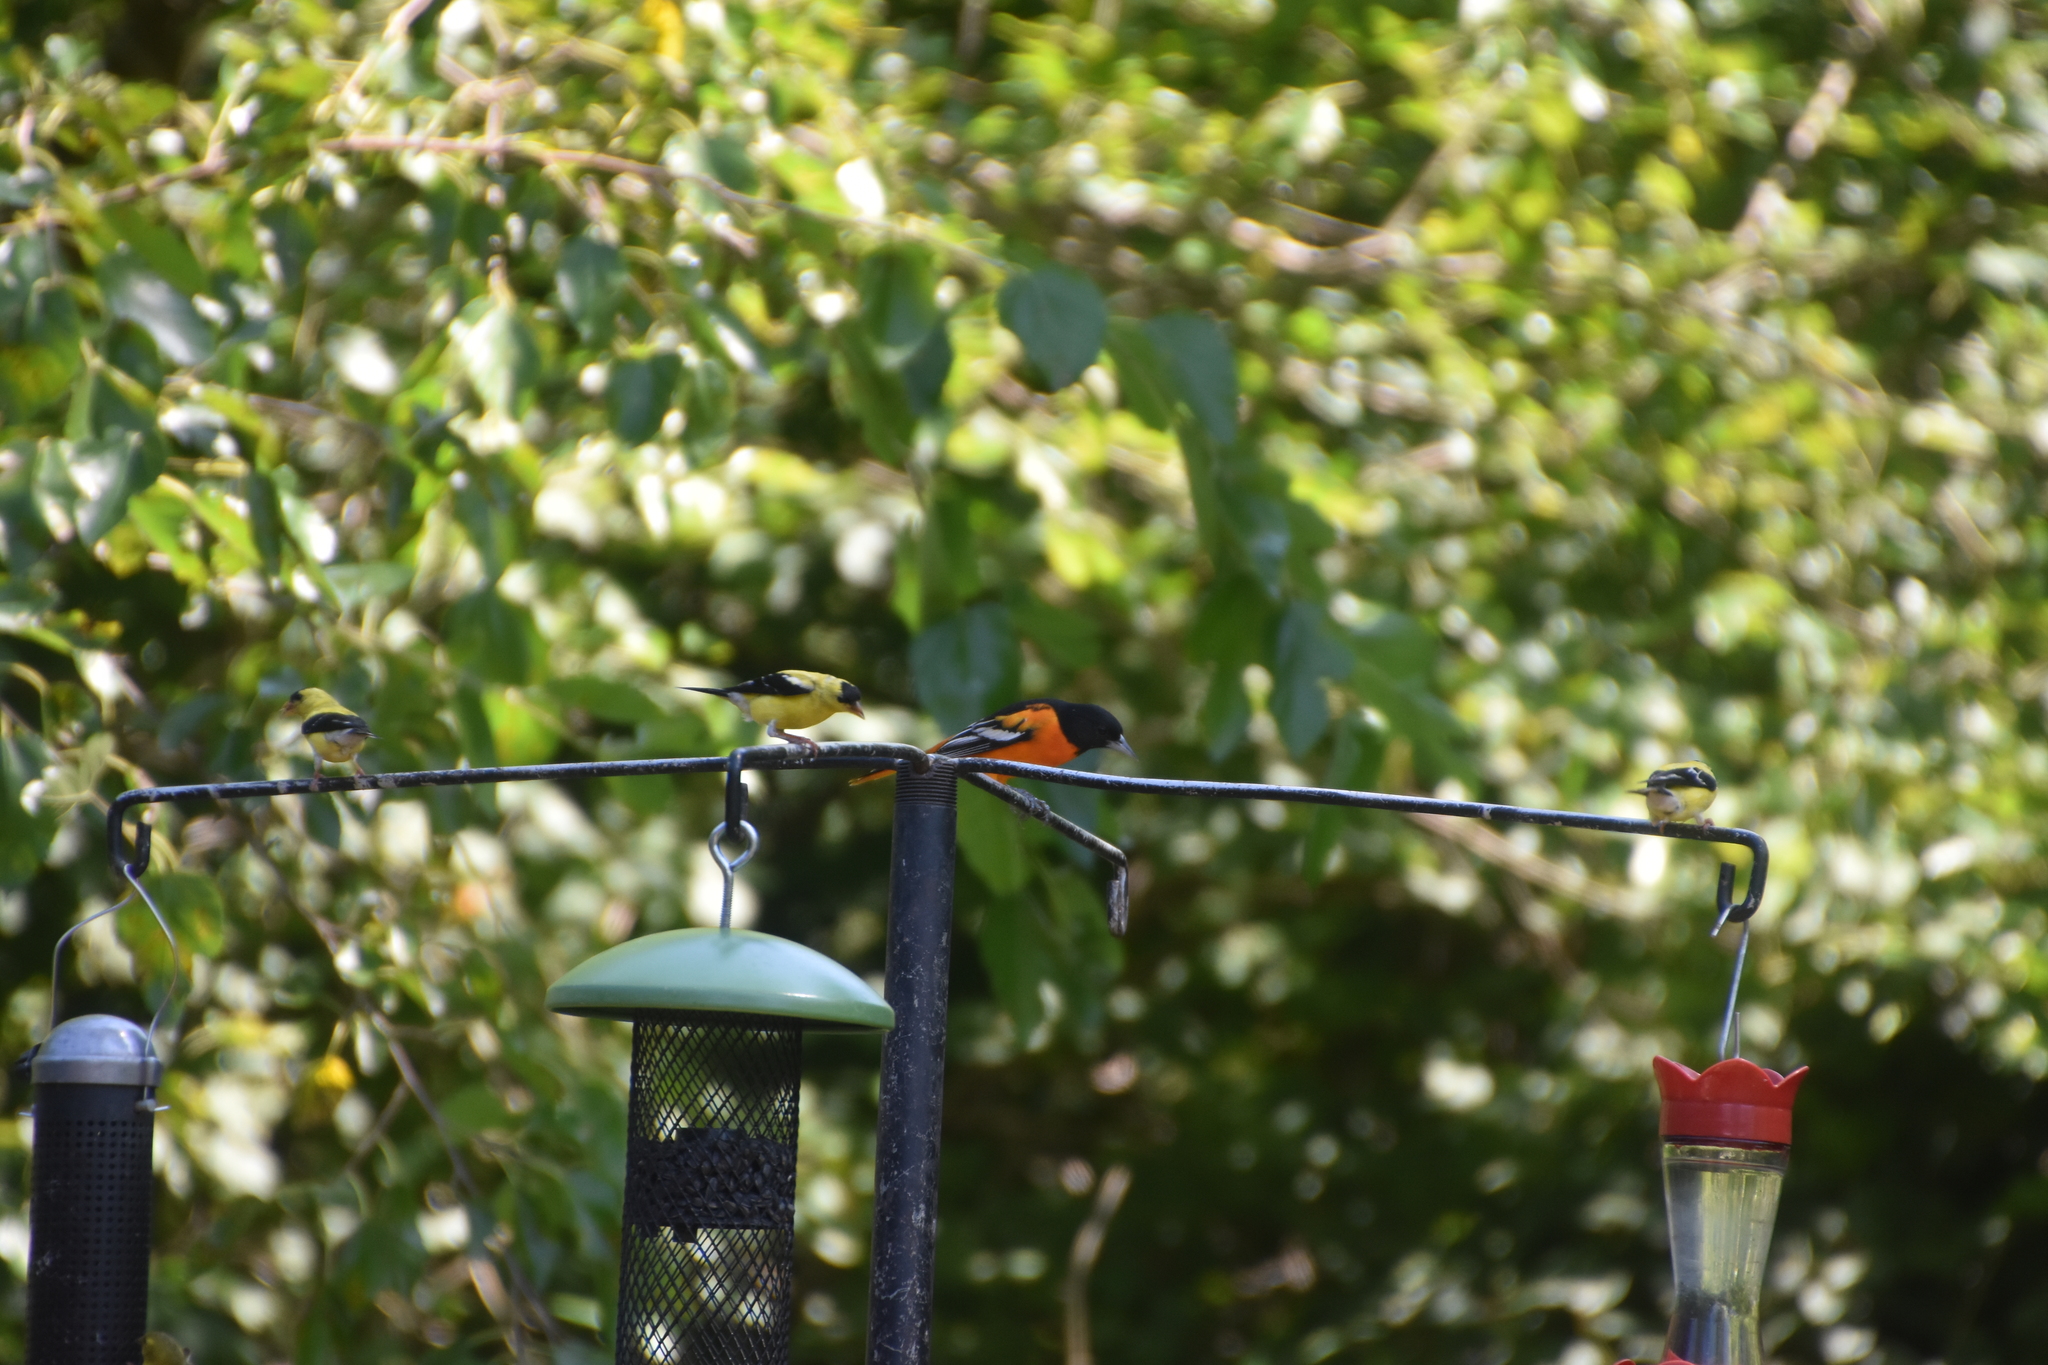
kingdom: Animalia
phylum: Chordata
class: Aves
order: Passeriformes
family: Icteridae
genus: Icterus
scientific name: Icterus galbula
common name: Baltimore oriole
